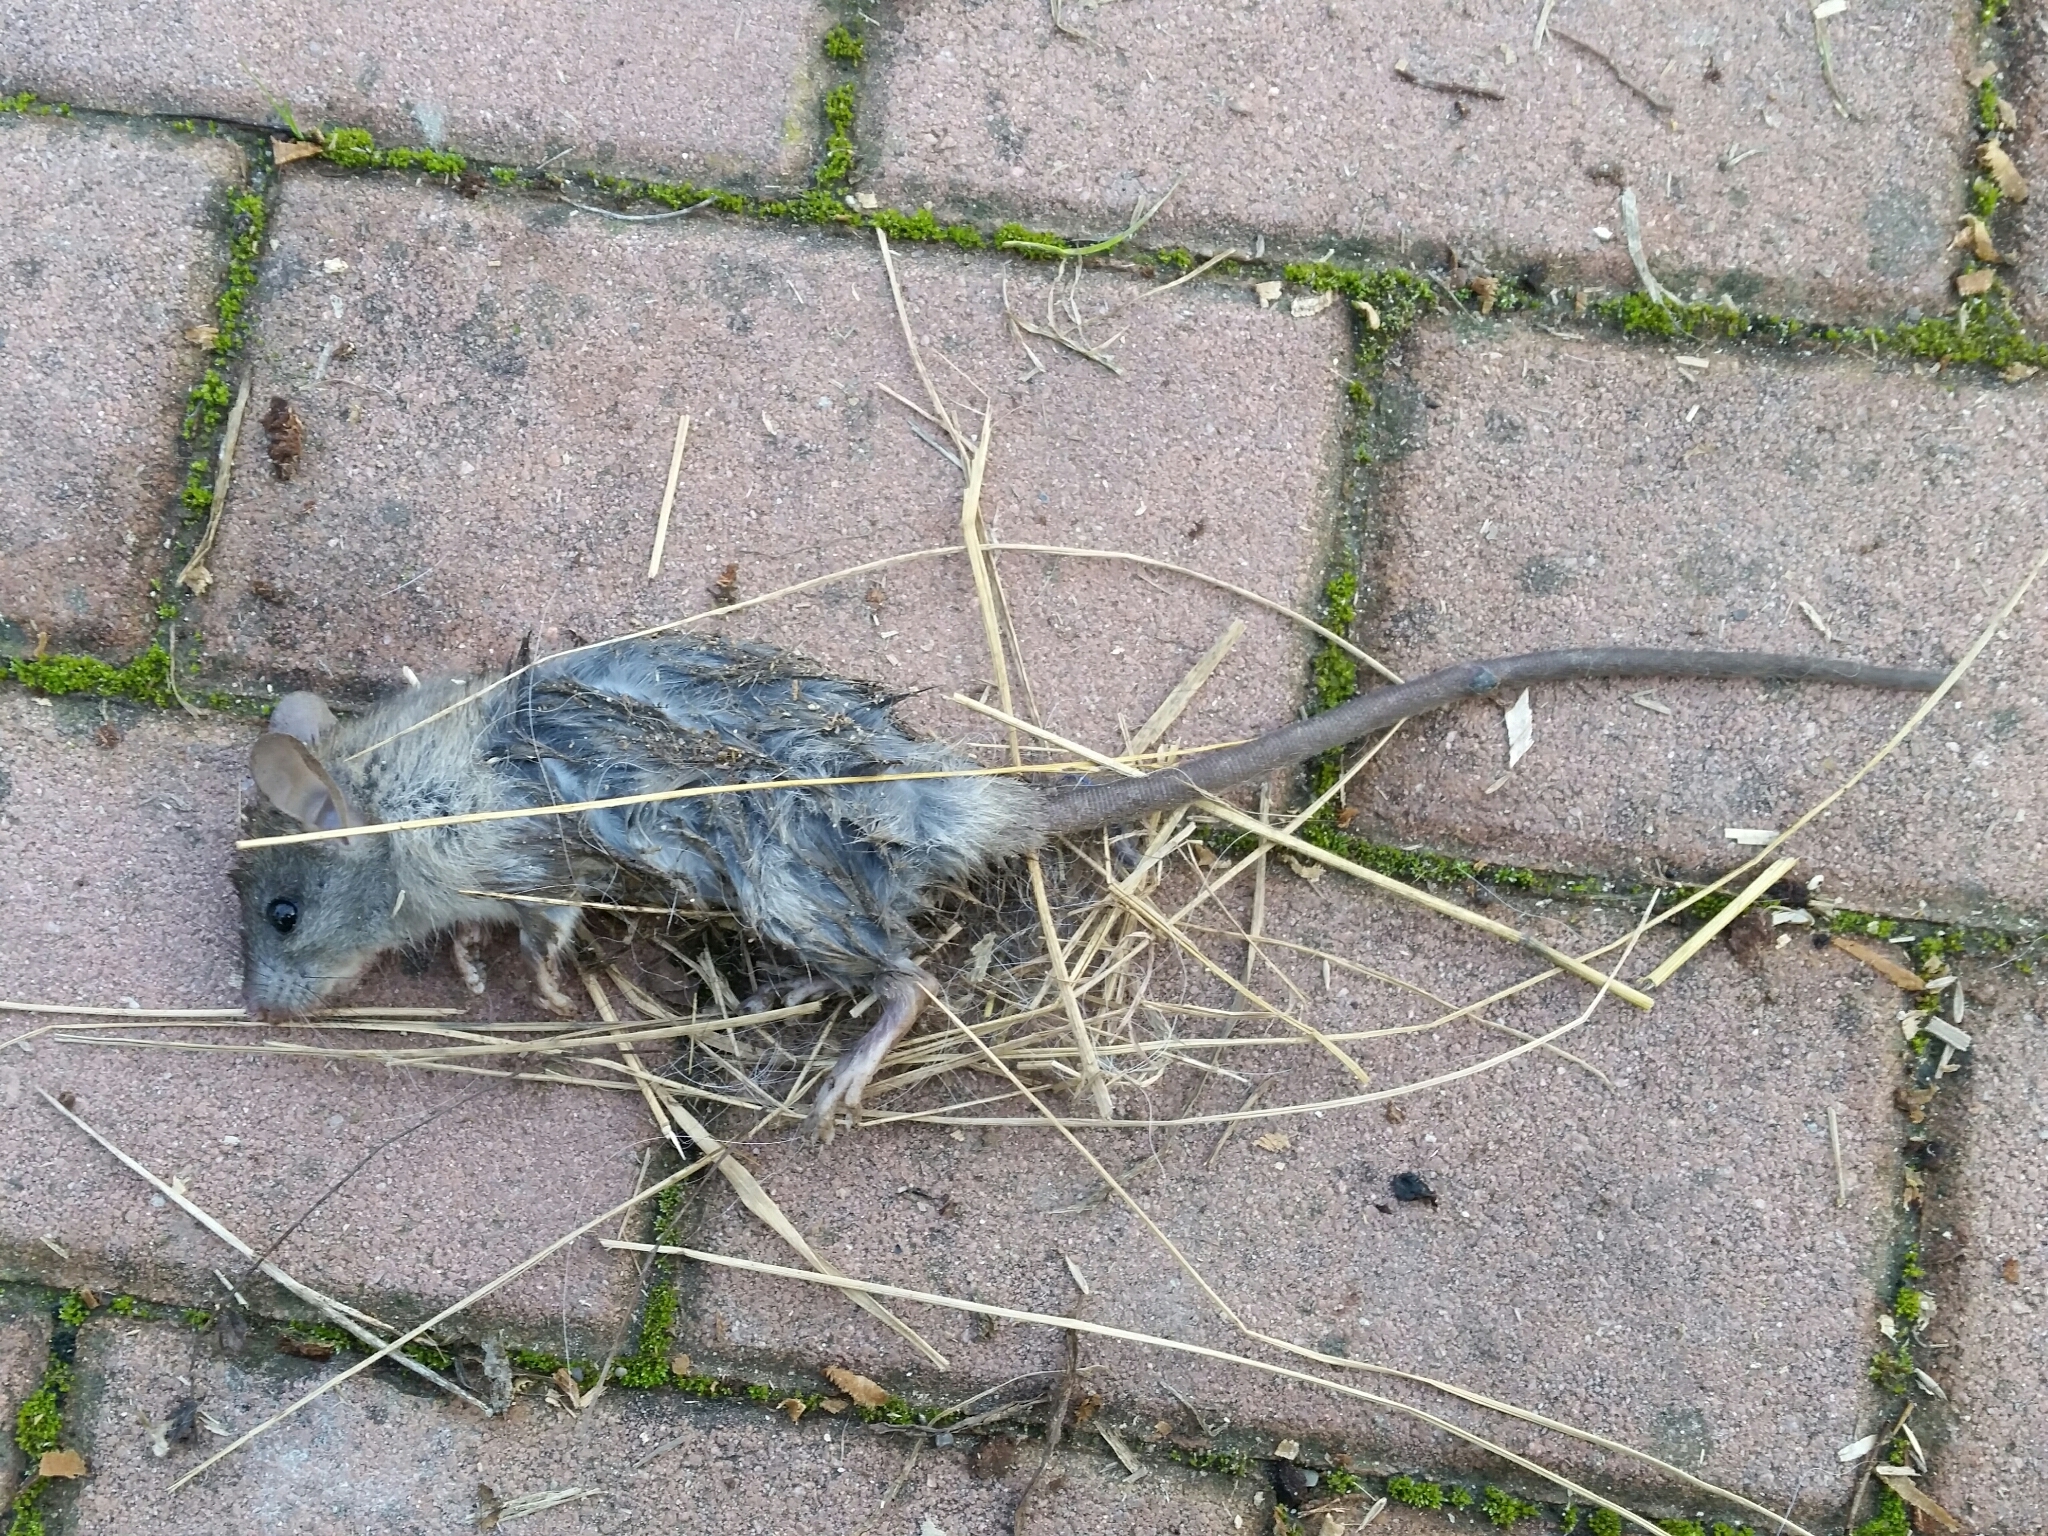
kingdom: Animalia
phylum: Chordata
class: Mammalia
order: Rodentia
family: Muridae
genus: Rattus
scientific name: Rattus rattus
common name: Black rat
